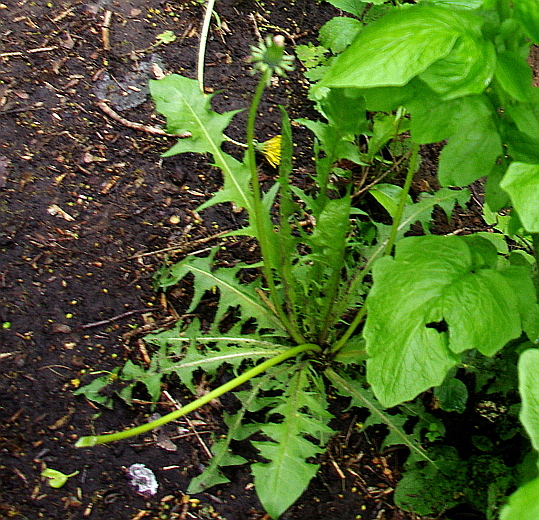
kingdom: Plantae
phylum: Tracheophyta
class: Magnoliopsida
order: Asterales
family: Asteraceae
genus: Taraxacum
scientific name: Taraxacum officinale
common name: Common dandelion
